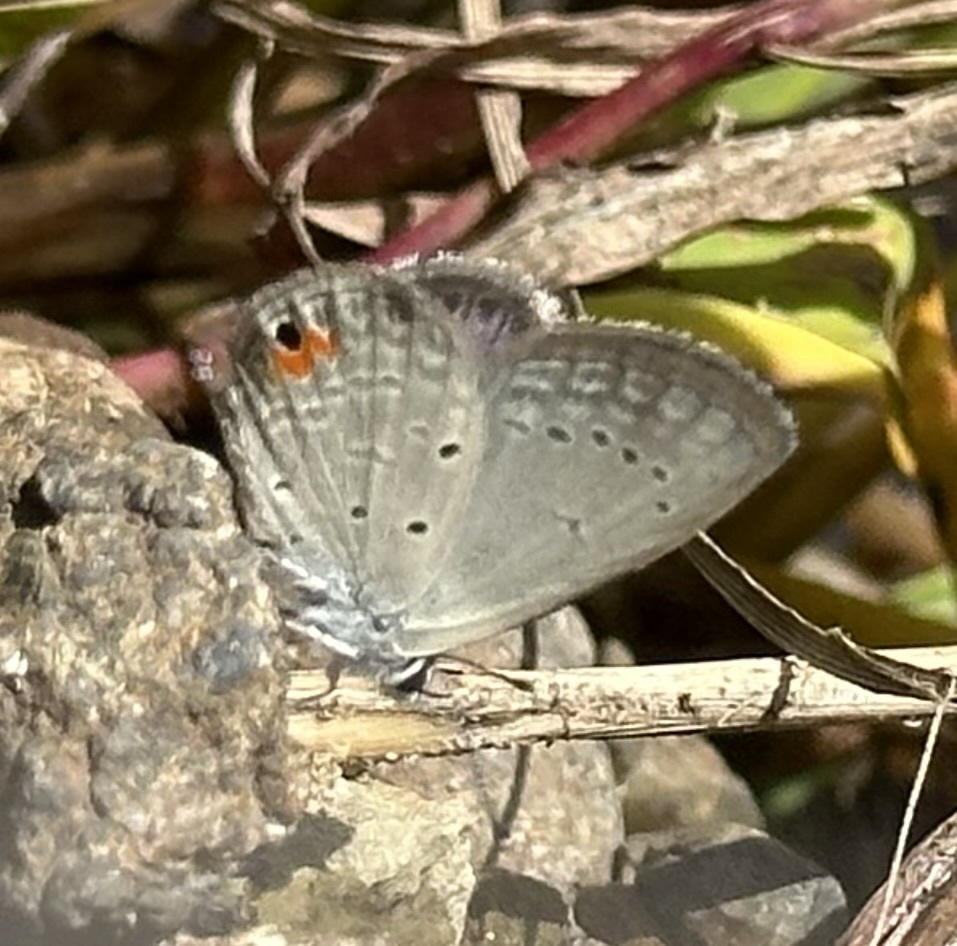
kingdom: Animalia
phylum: Arthropoda
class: Insecta
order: Lepidoptera
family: Lycaenidae
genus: Eicochrysops
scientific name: Eicochrysops messapus
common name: Cupreous blue
